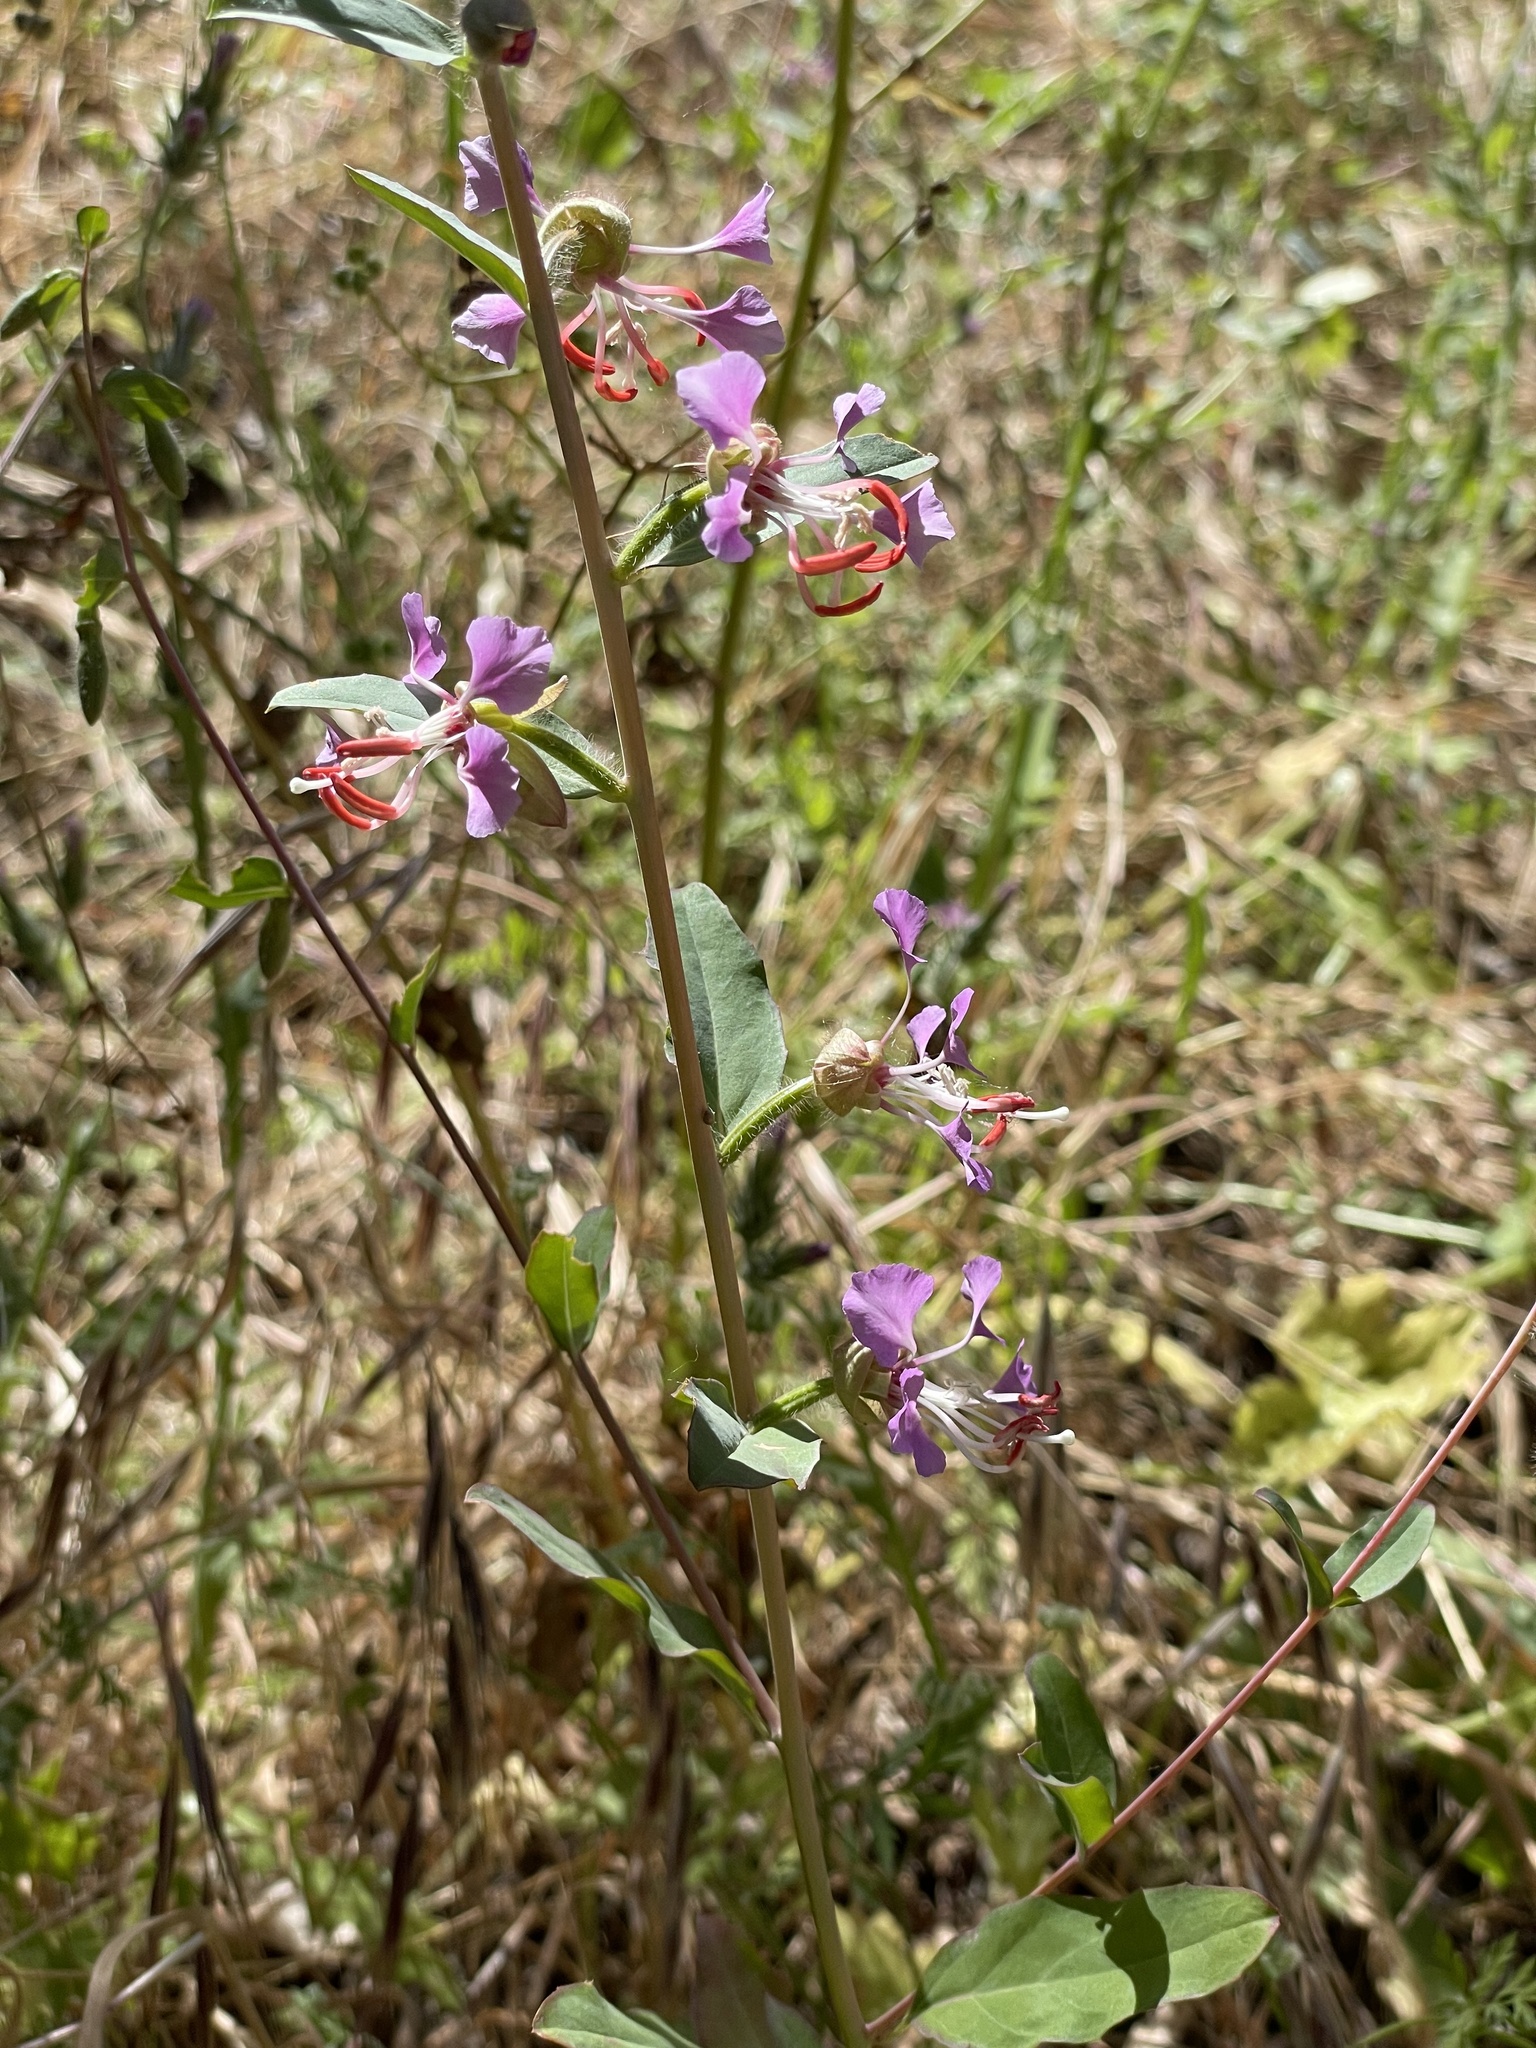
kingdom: Plantae
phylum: Tracheophyta
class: Magnoliopsida
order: Myrtales
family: Onagraceae
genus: Clarkia
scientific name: Clarkia unguiculata
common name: Clarkia
